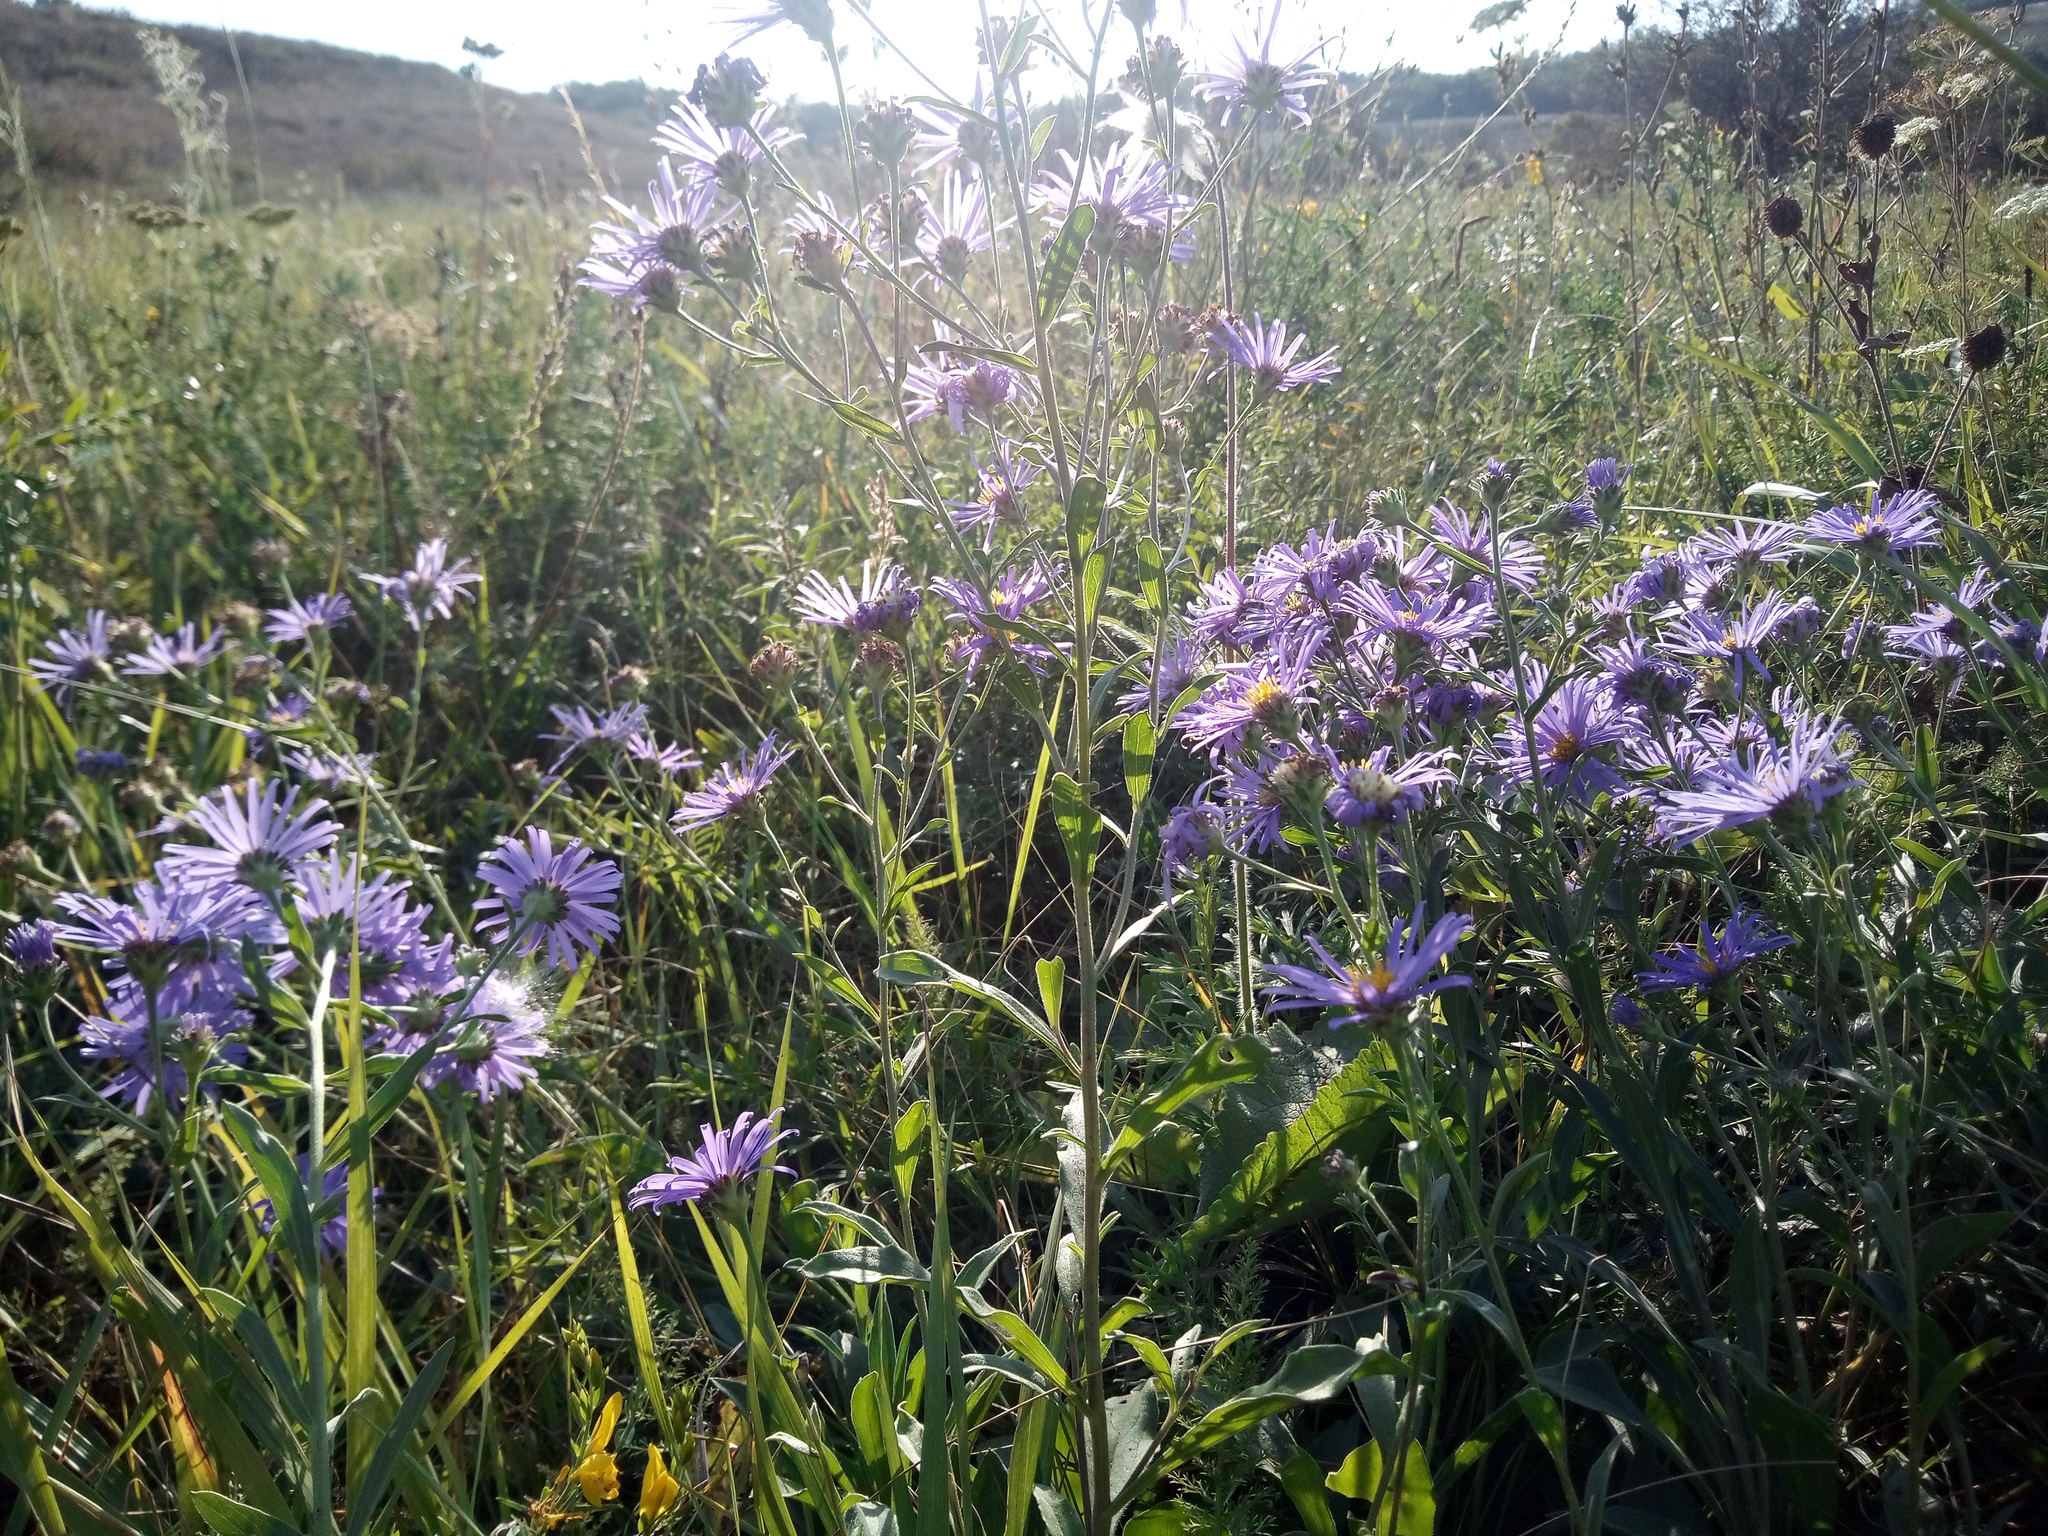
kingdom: Plantae
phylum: Tracheophyta
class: Magnoliopsida
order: Asterales
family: Asteraceae
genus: Aster
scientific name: Aster amellus
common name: European michaelmas daisy
